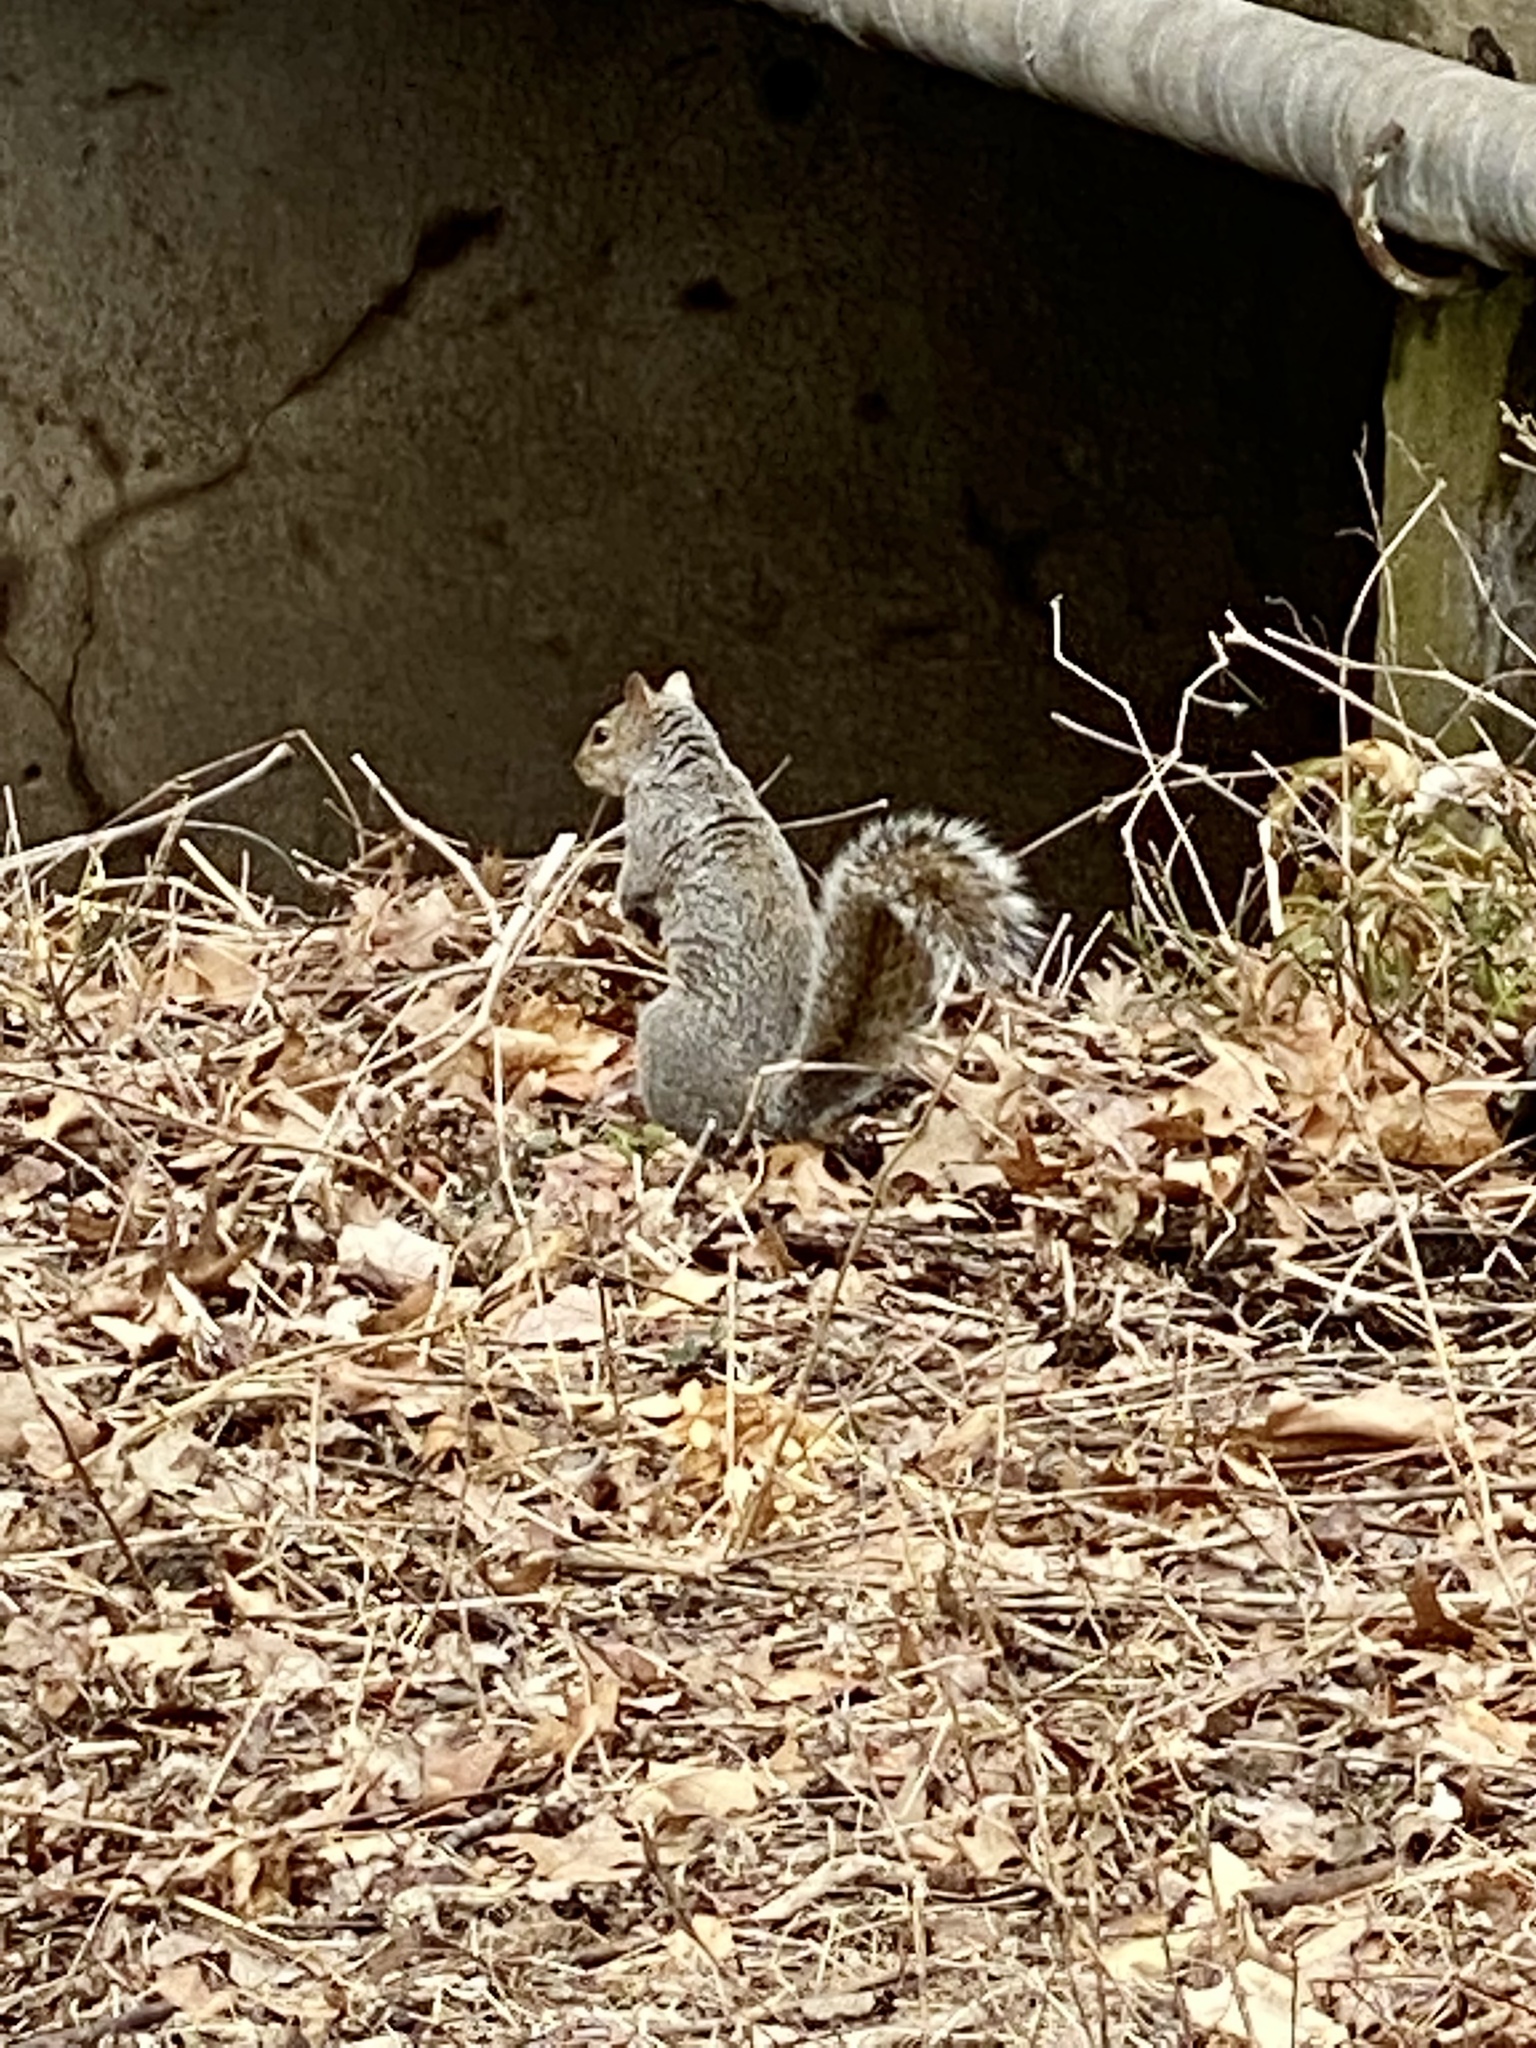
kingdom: Animalia
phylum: Chordata
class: Mammalia
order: Rodentia
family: Sciuridae
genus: Sciurus
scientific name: Sciurus carolinensis
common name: Eastern gray squirrel
